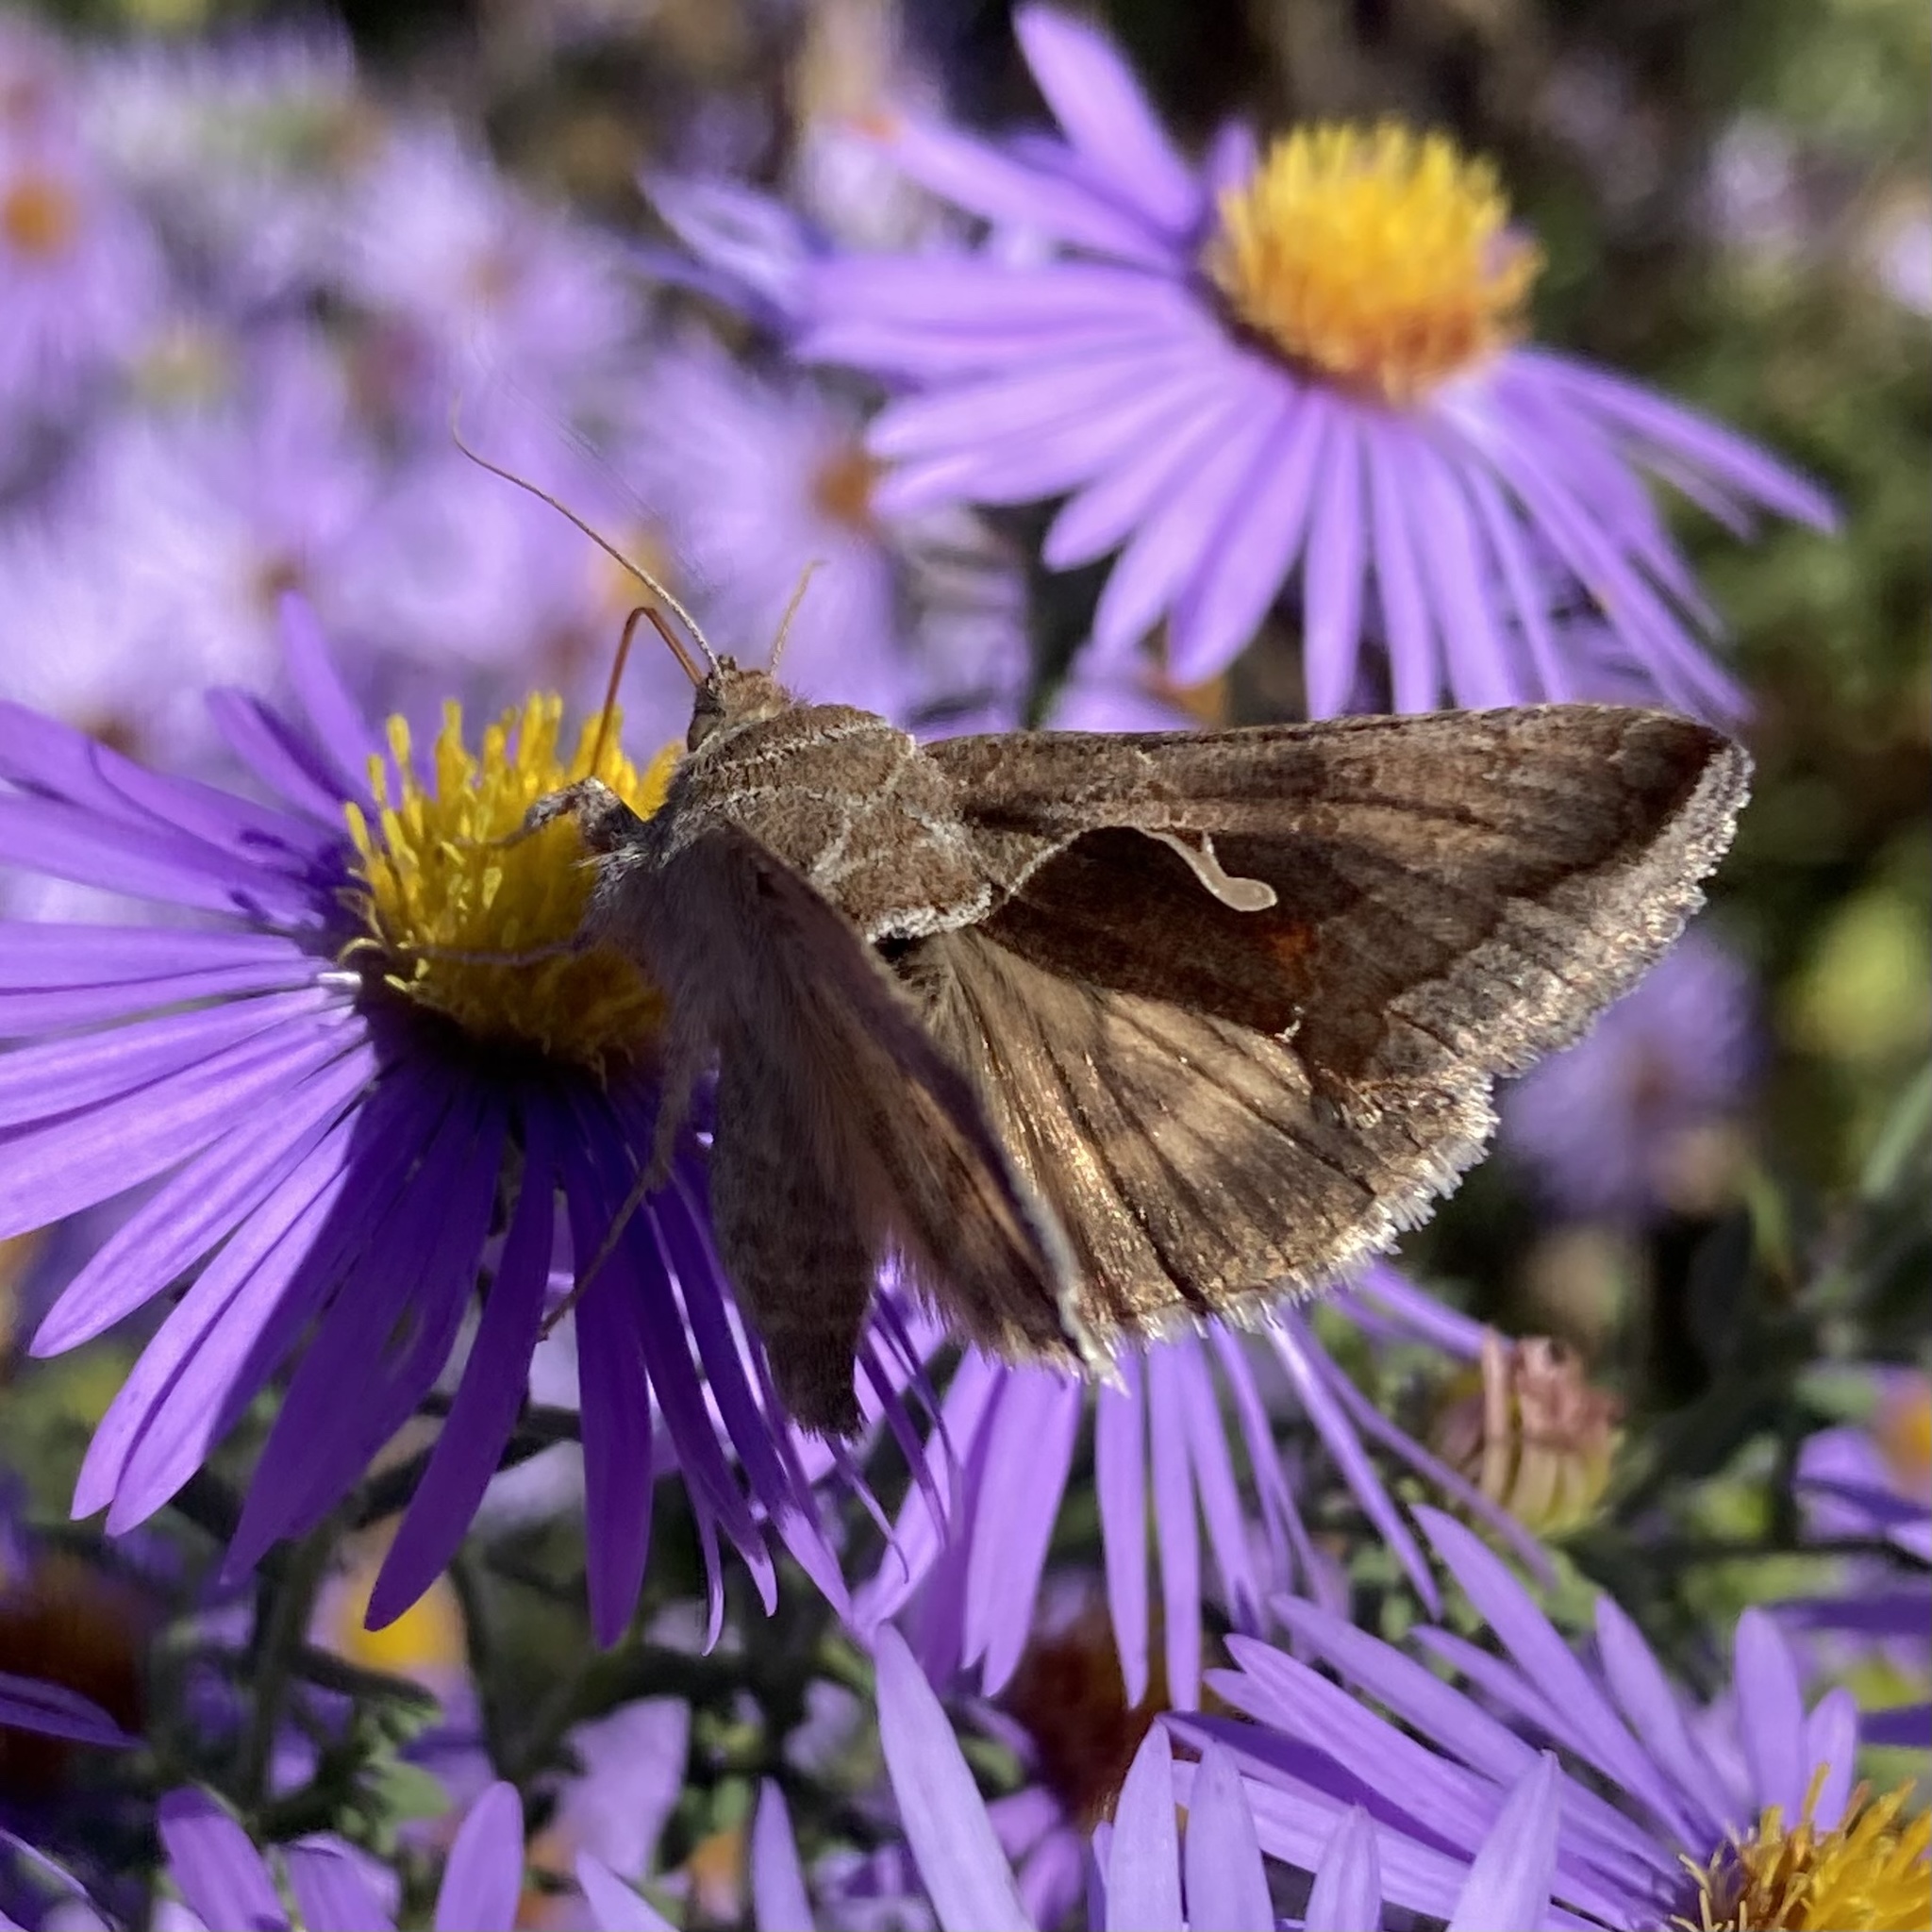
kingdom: Animalia
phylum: Arthropoda
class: Insecta
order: Lepidoptera
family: Noctuidae
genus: Anagrapha
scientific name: Anagrapha falcifera
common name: Celery looper
